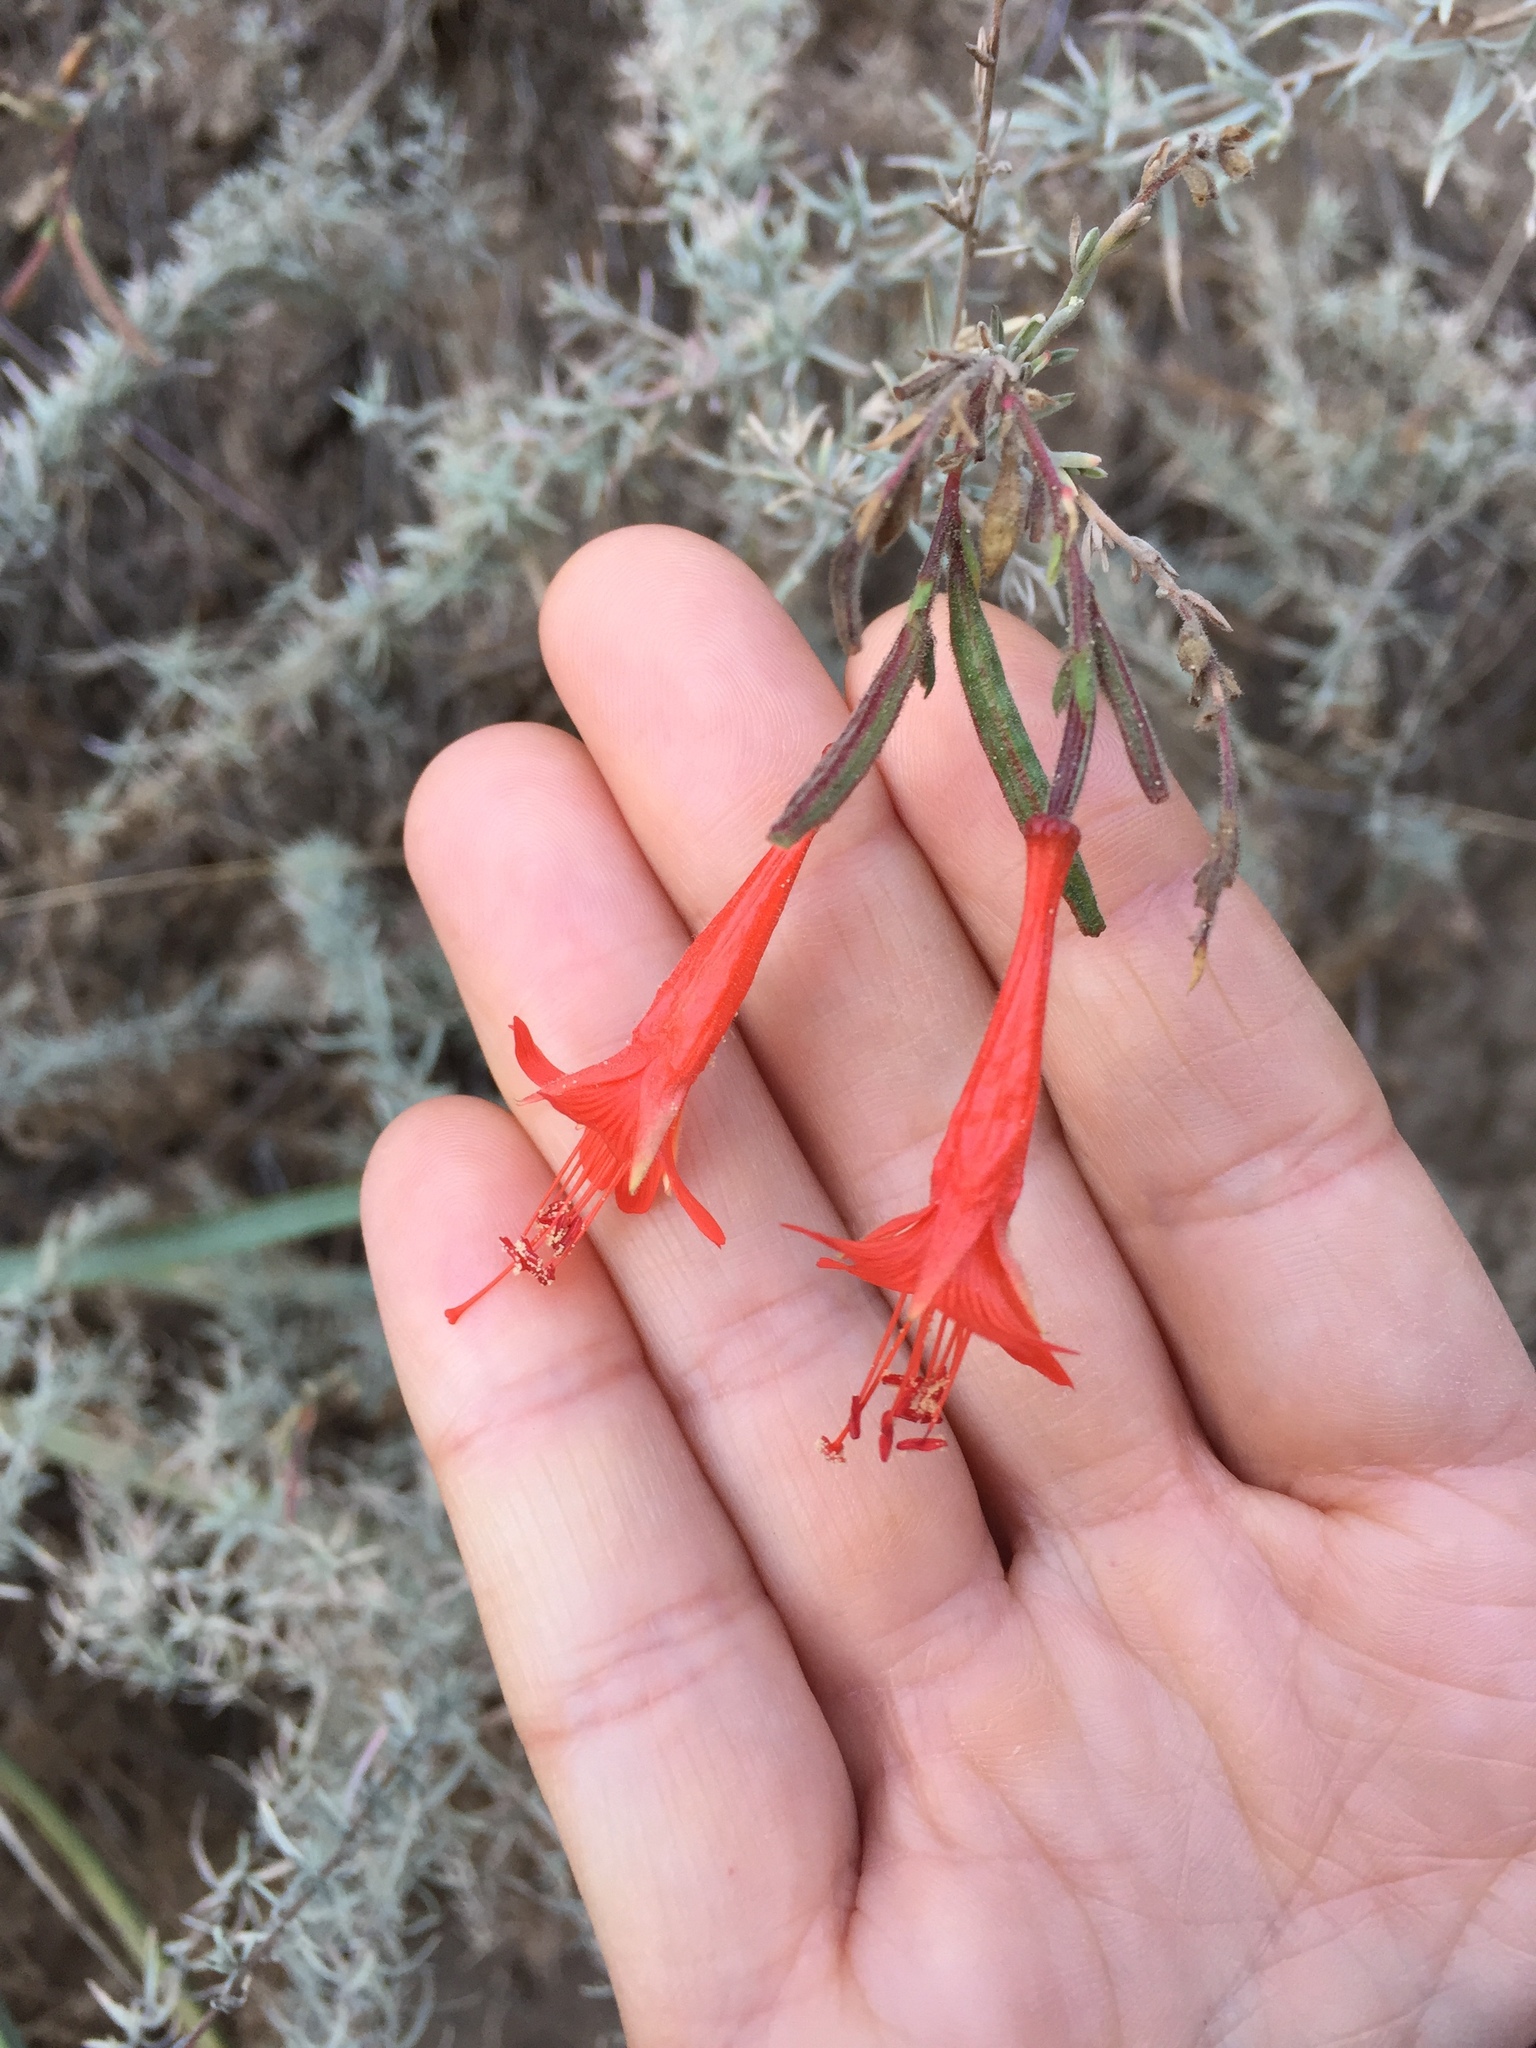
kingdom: Plantae
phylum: Tracheophyta
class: Magnoliopsida
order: Myrtales
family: Onagraceae
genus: Epilobium
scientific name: Epilobium canum
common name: California-fuchsia
